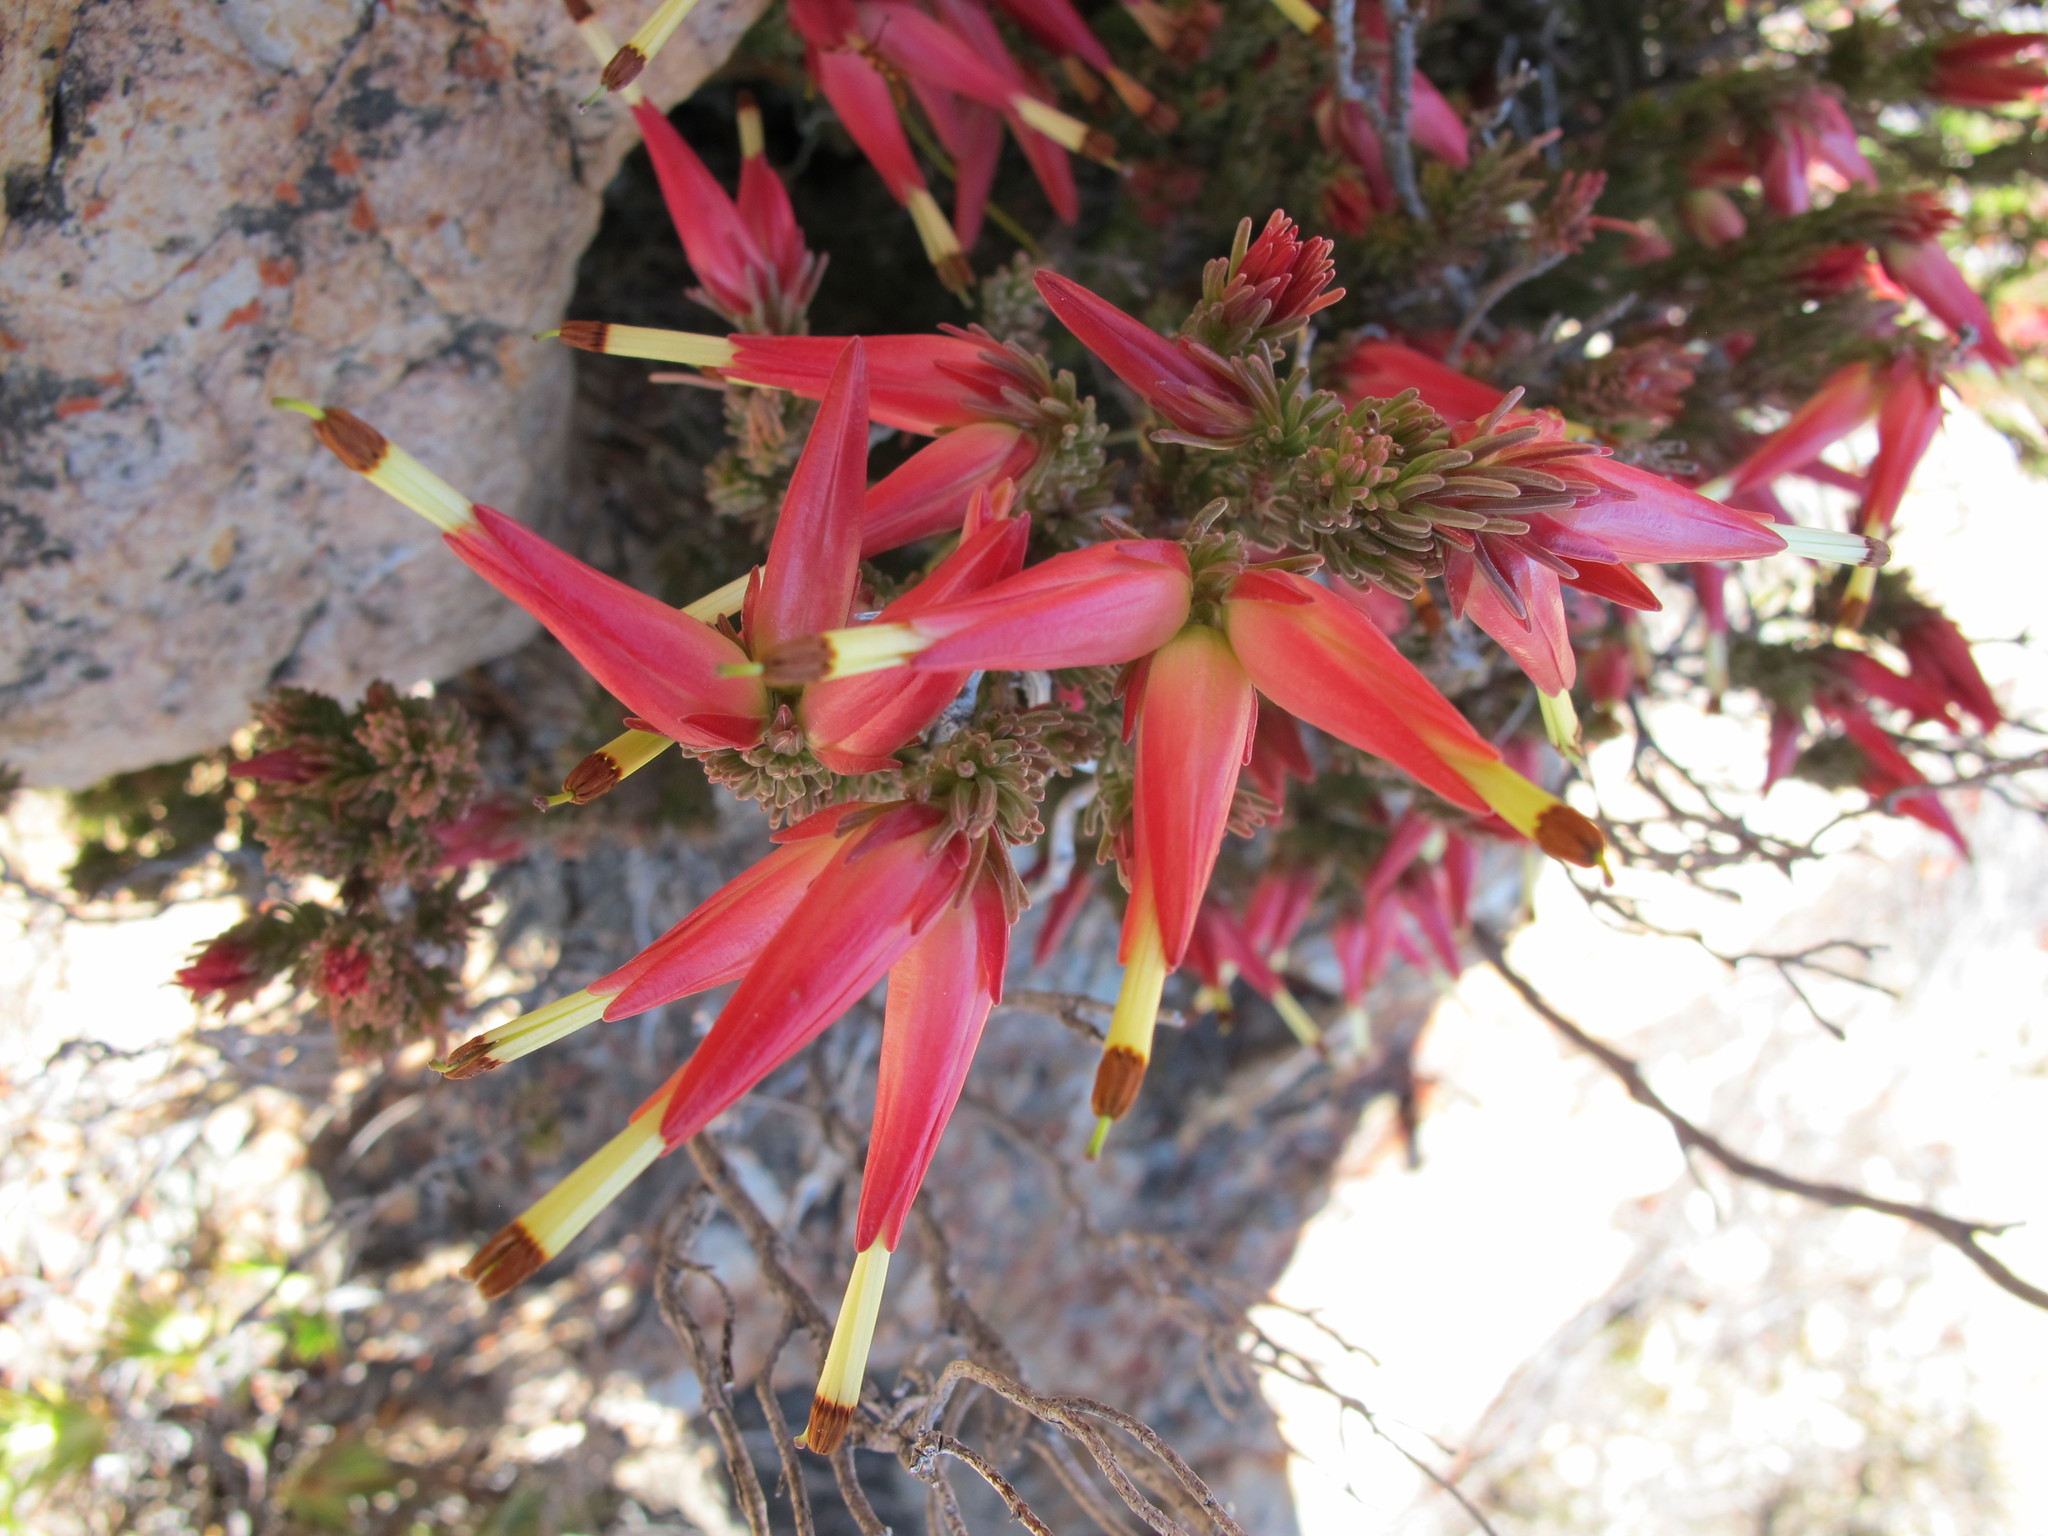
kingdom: Plantae
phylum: Tracheophyta
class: Magnoliopsida
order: Ericales
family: Ericaceae
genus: Erica
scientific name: Erica insignis
